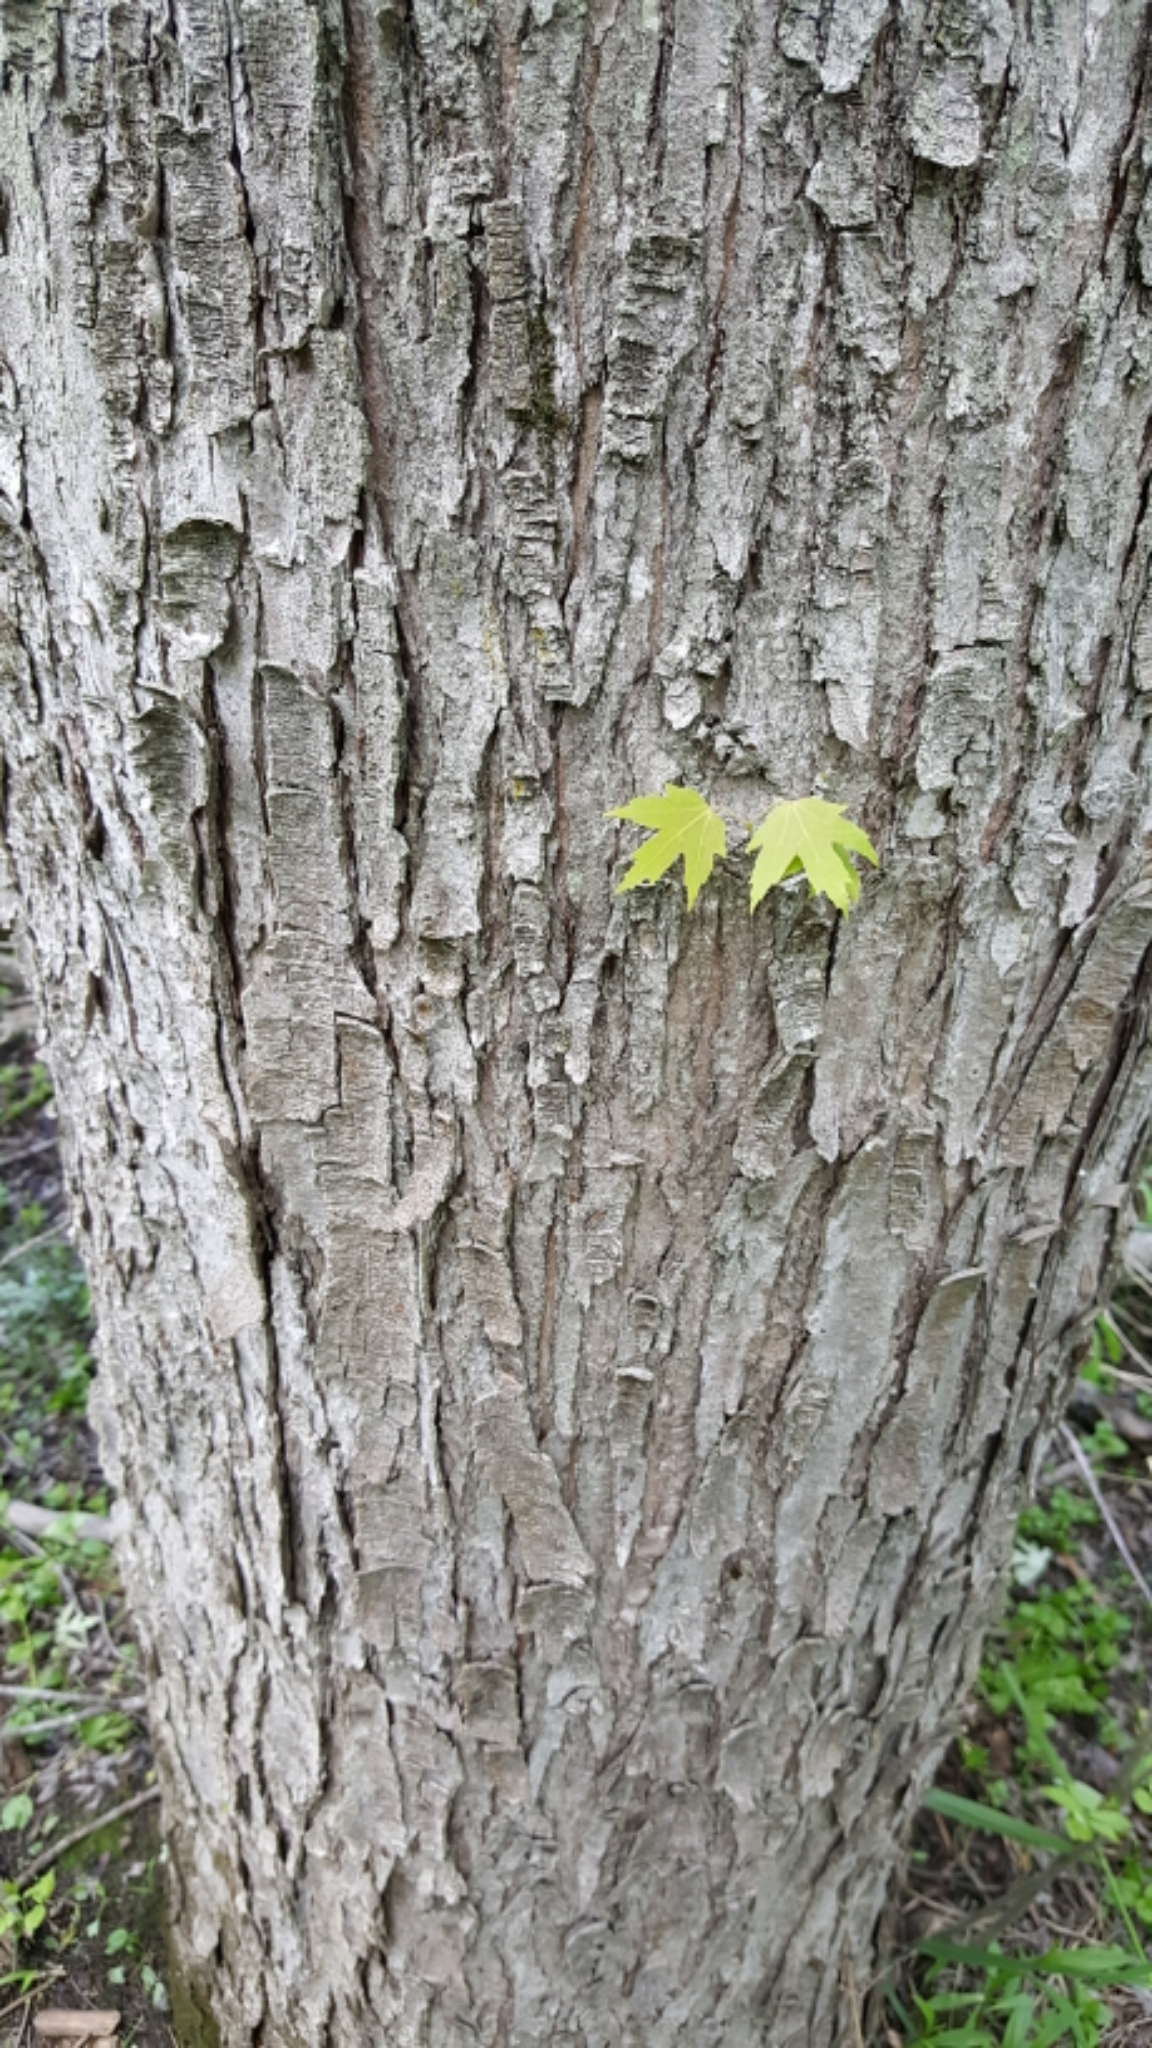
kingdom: Plantae
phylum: Tracheophyta
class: Magnoliopsida
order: Sapindales
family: Sapindaceae
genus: Acer
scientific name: Acer saccharinum
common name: Silver maple
